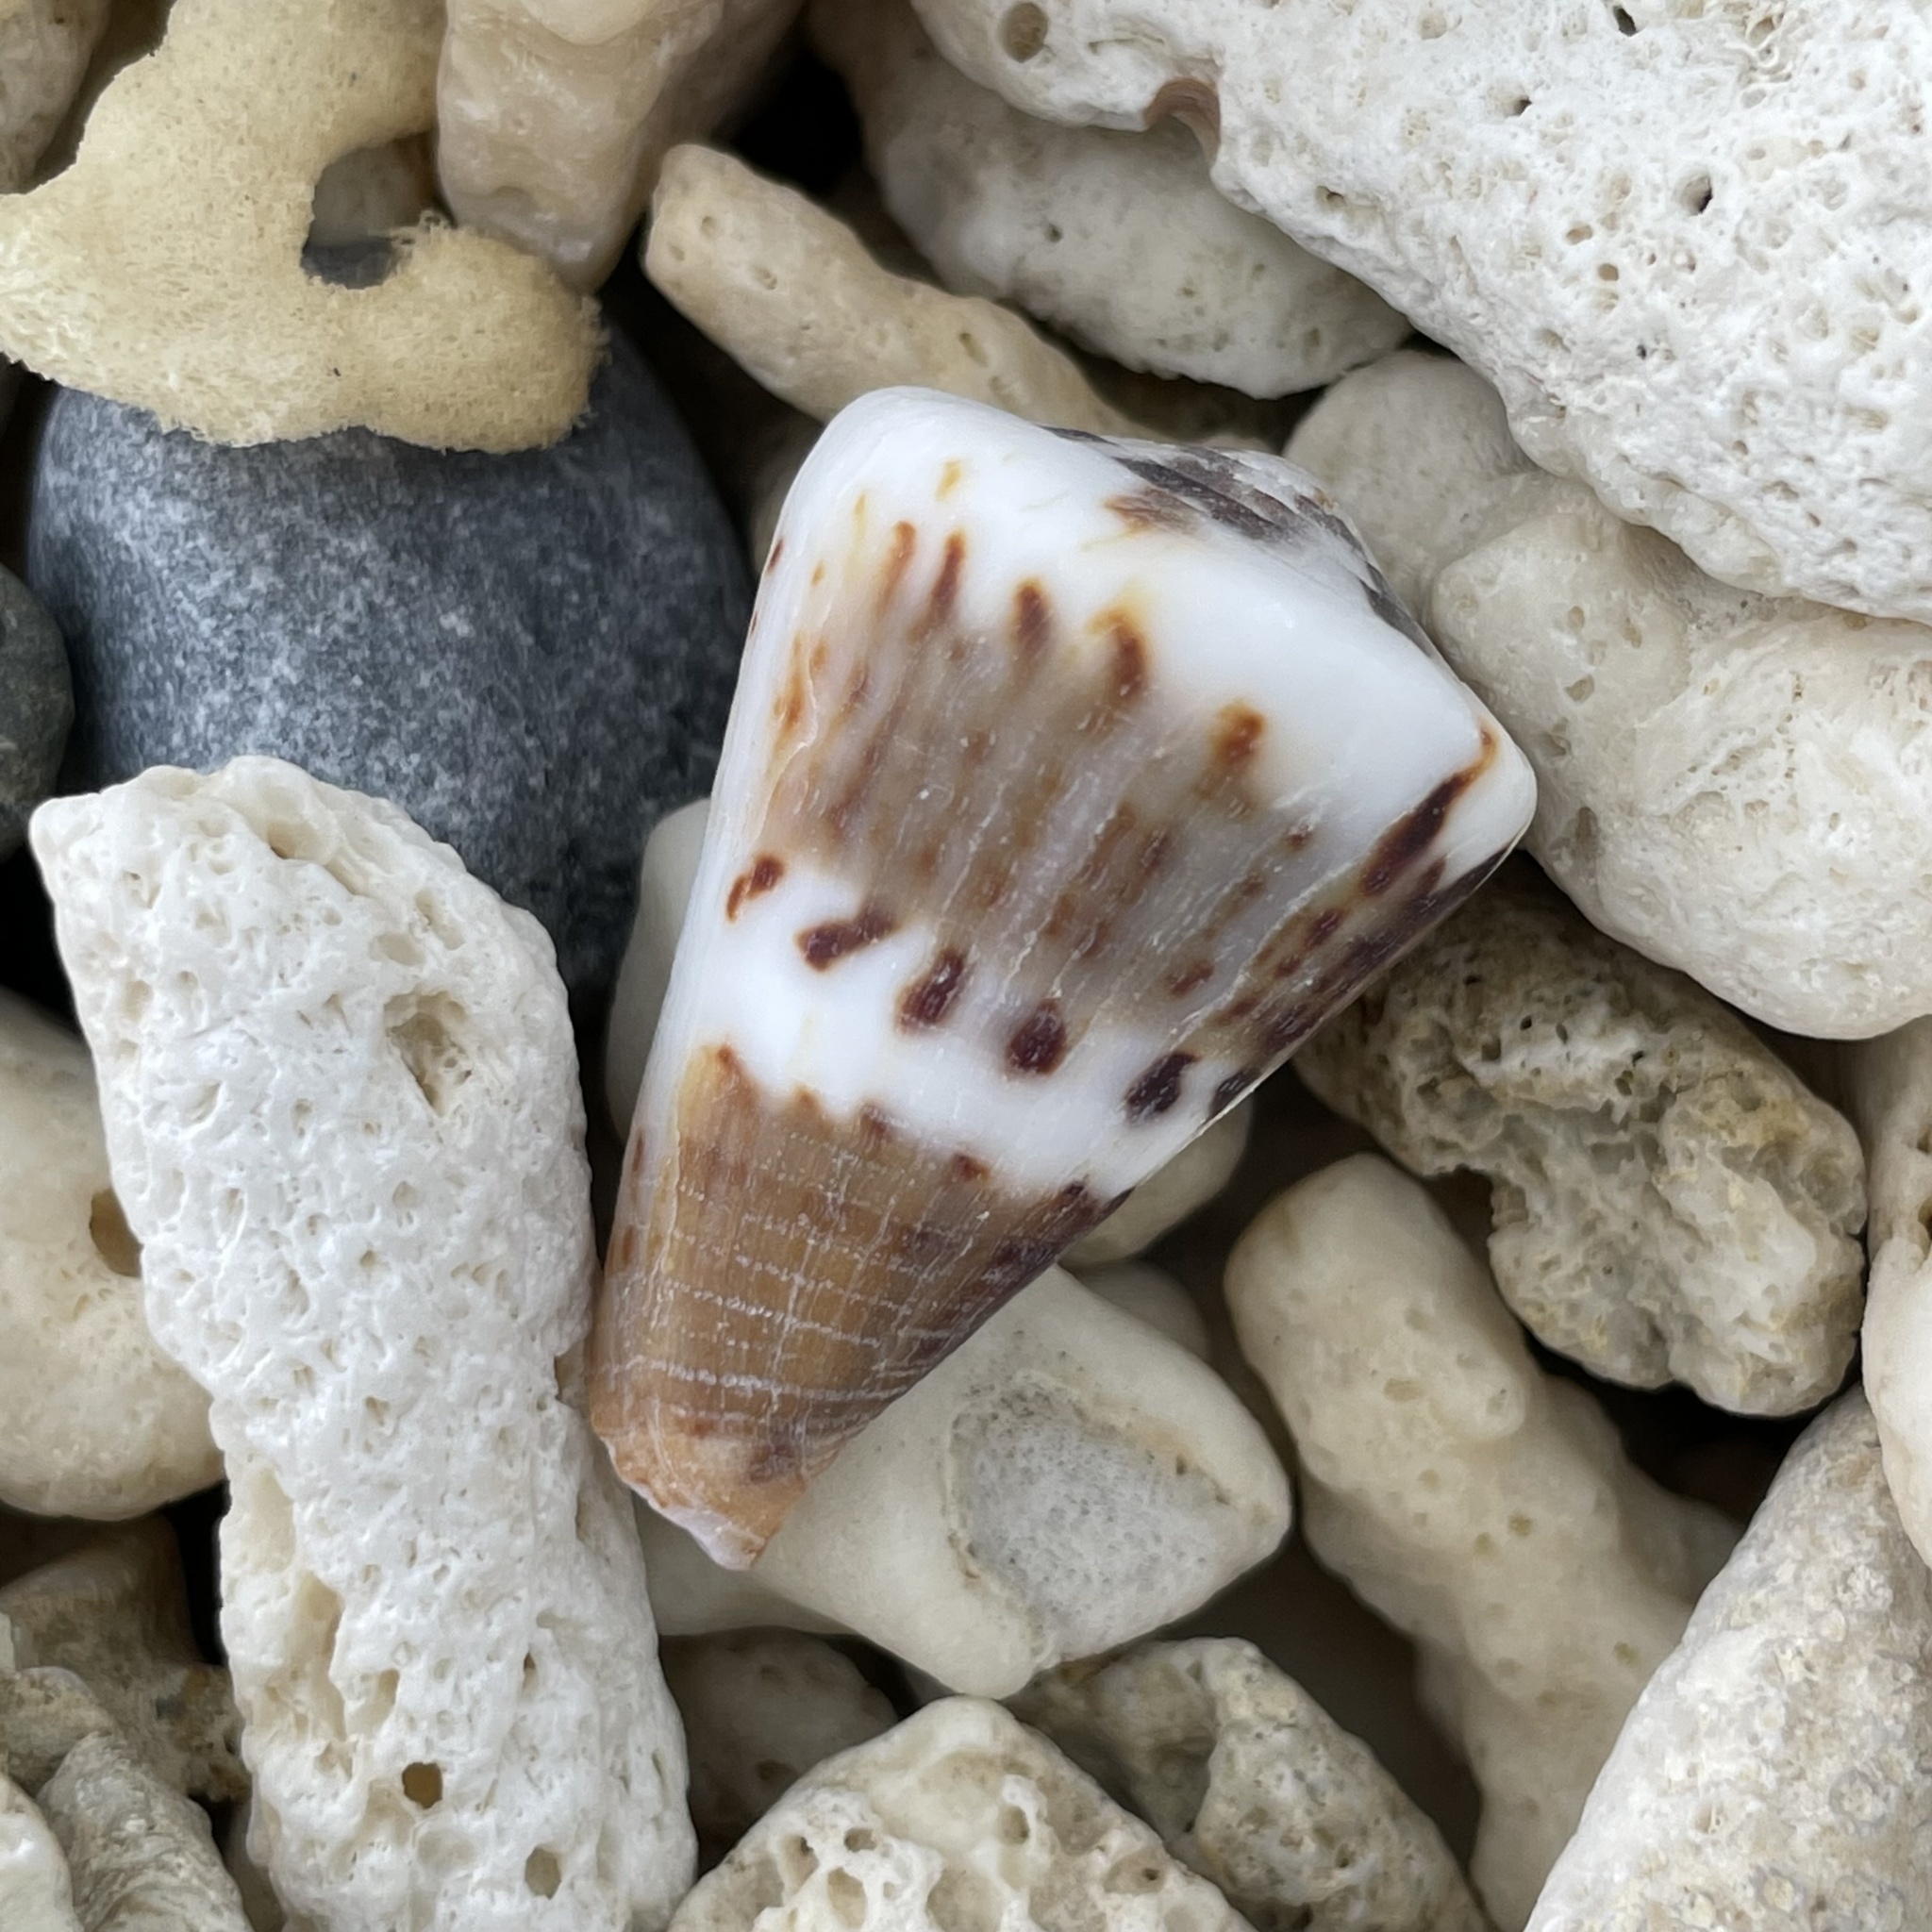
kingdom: Animalia
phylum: Mollusca
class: Gastropoda
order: Neogastropoda
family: Conidae
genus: Conus
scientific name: Conus capitaneus
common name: Captain cone
